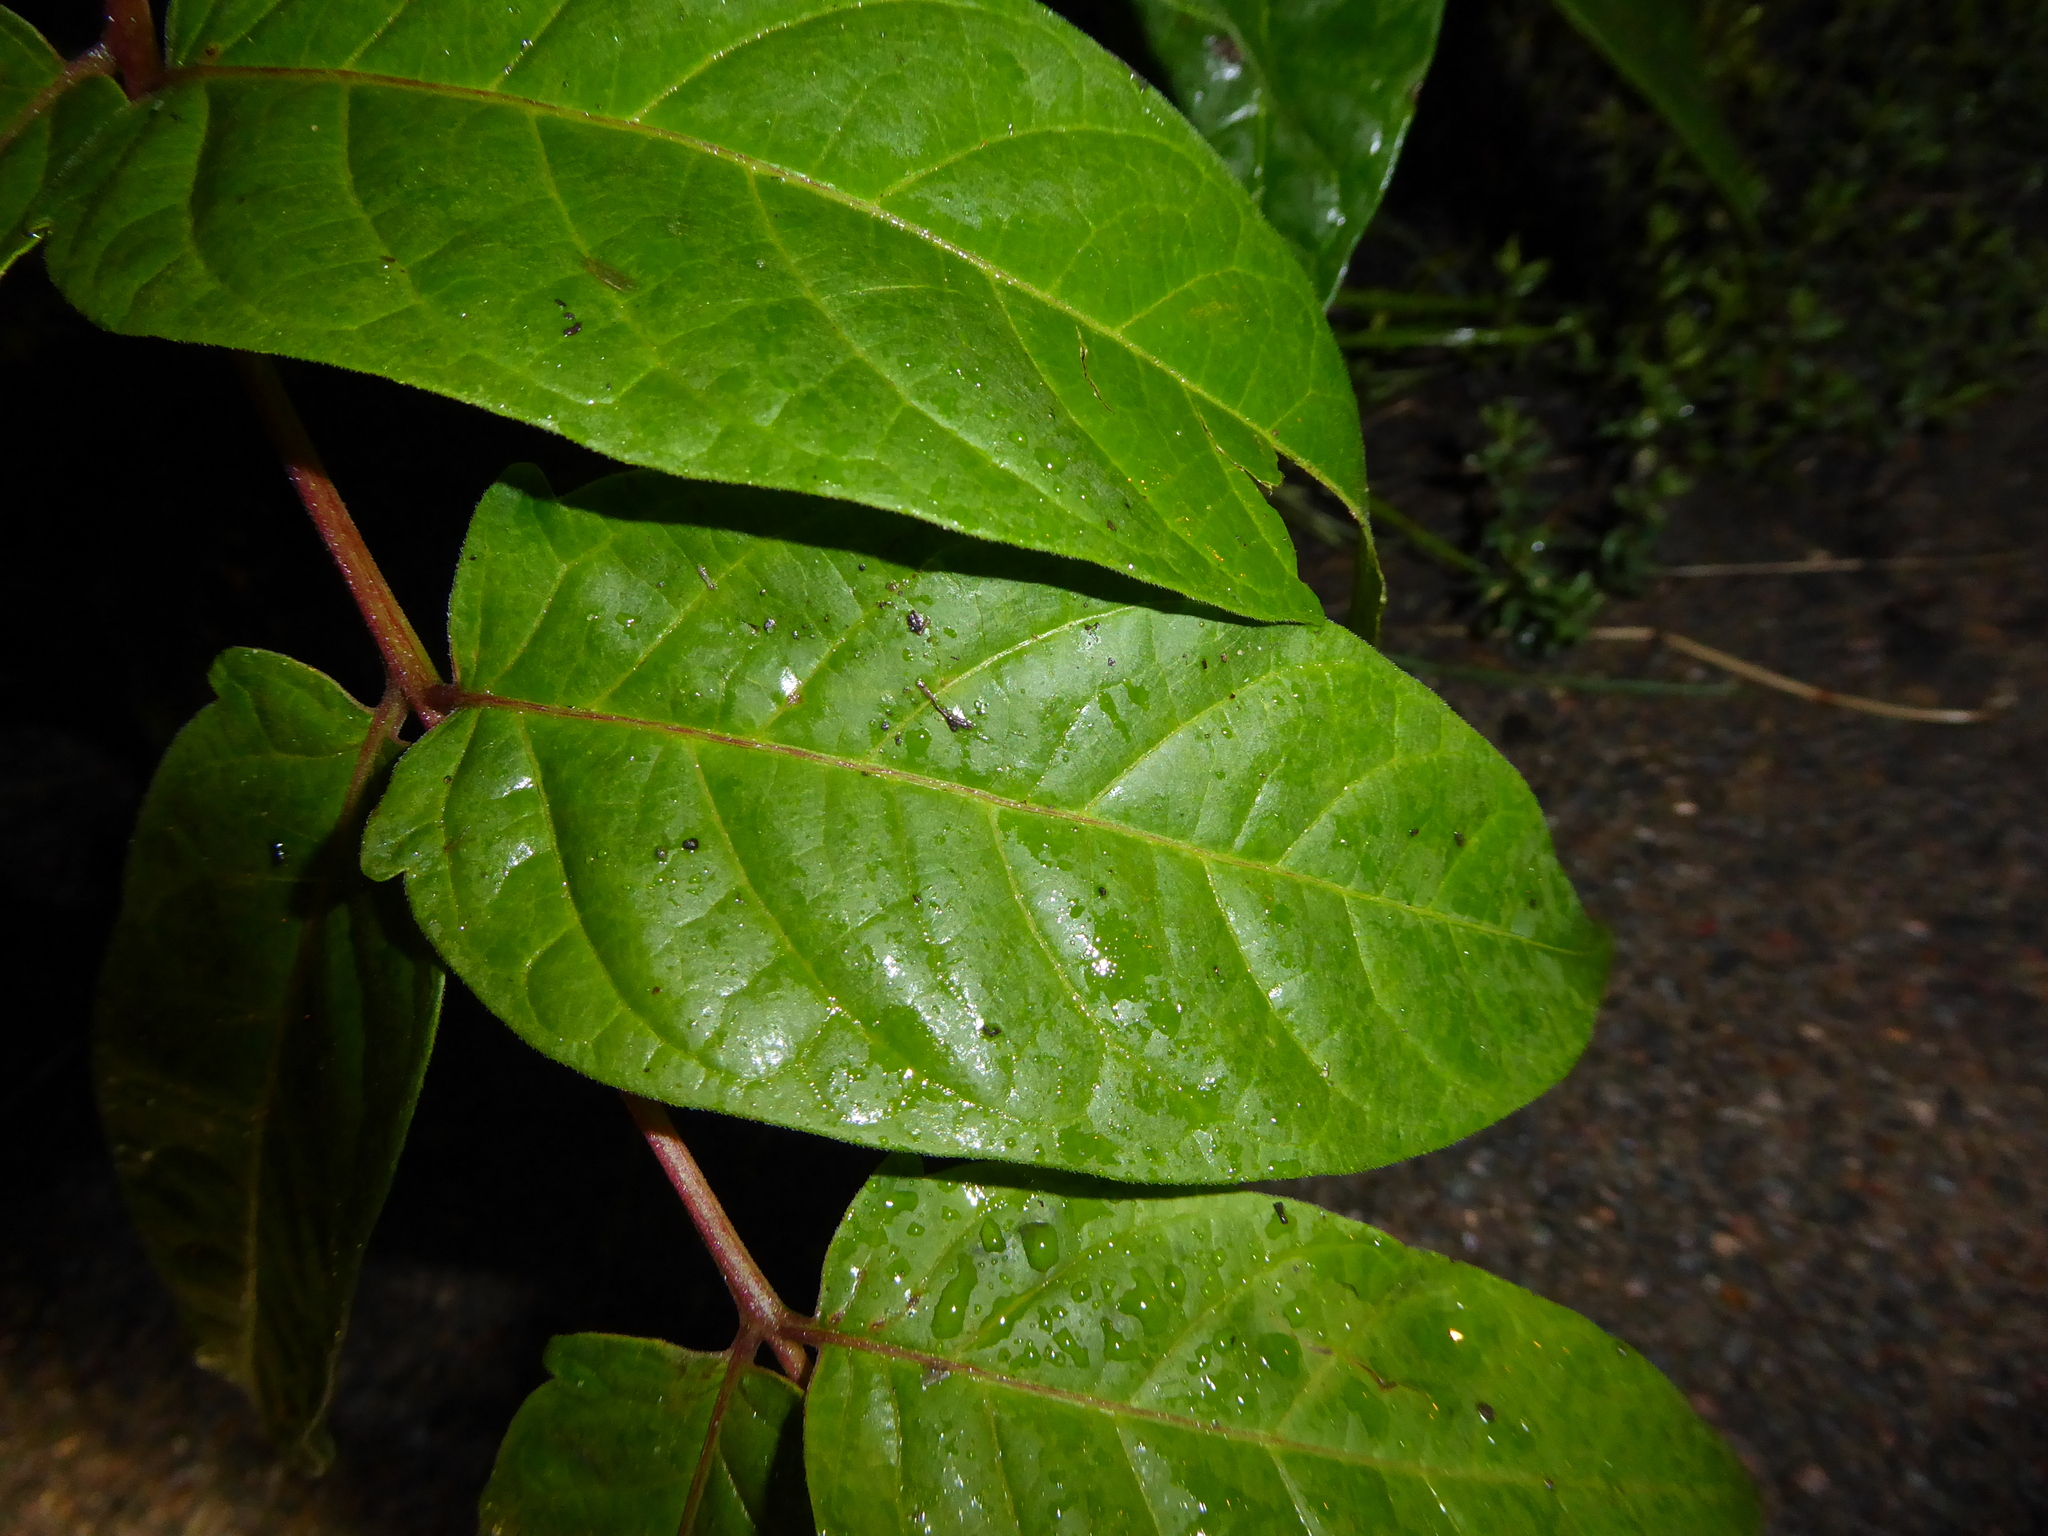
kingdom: Plantae
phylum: Tracheophyta
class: Magnoliopsida
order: Sapindales
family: Simaroubaceae
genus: Ailanthus
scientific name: Ailanthus altissima
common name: Tree-of-heaven
